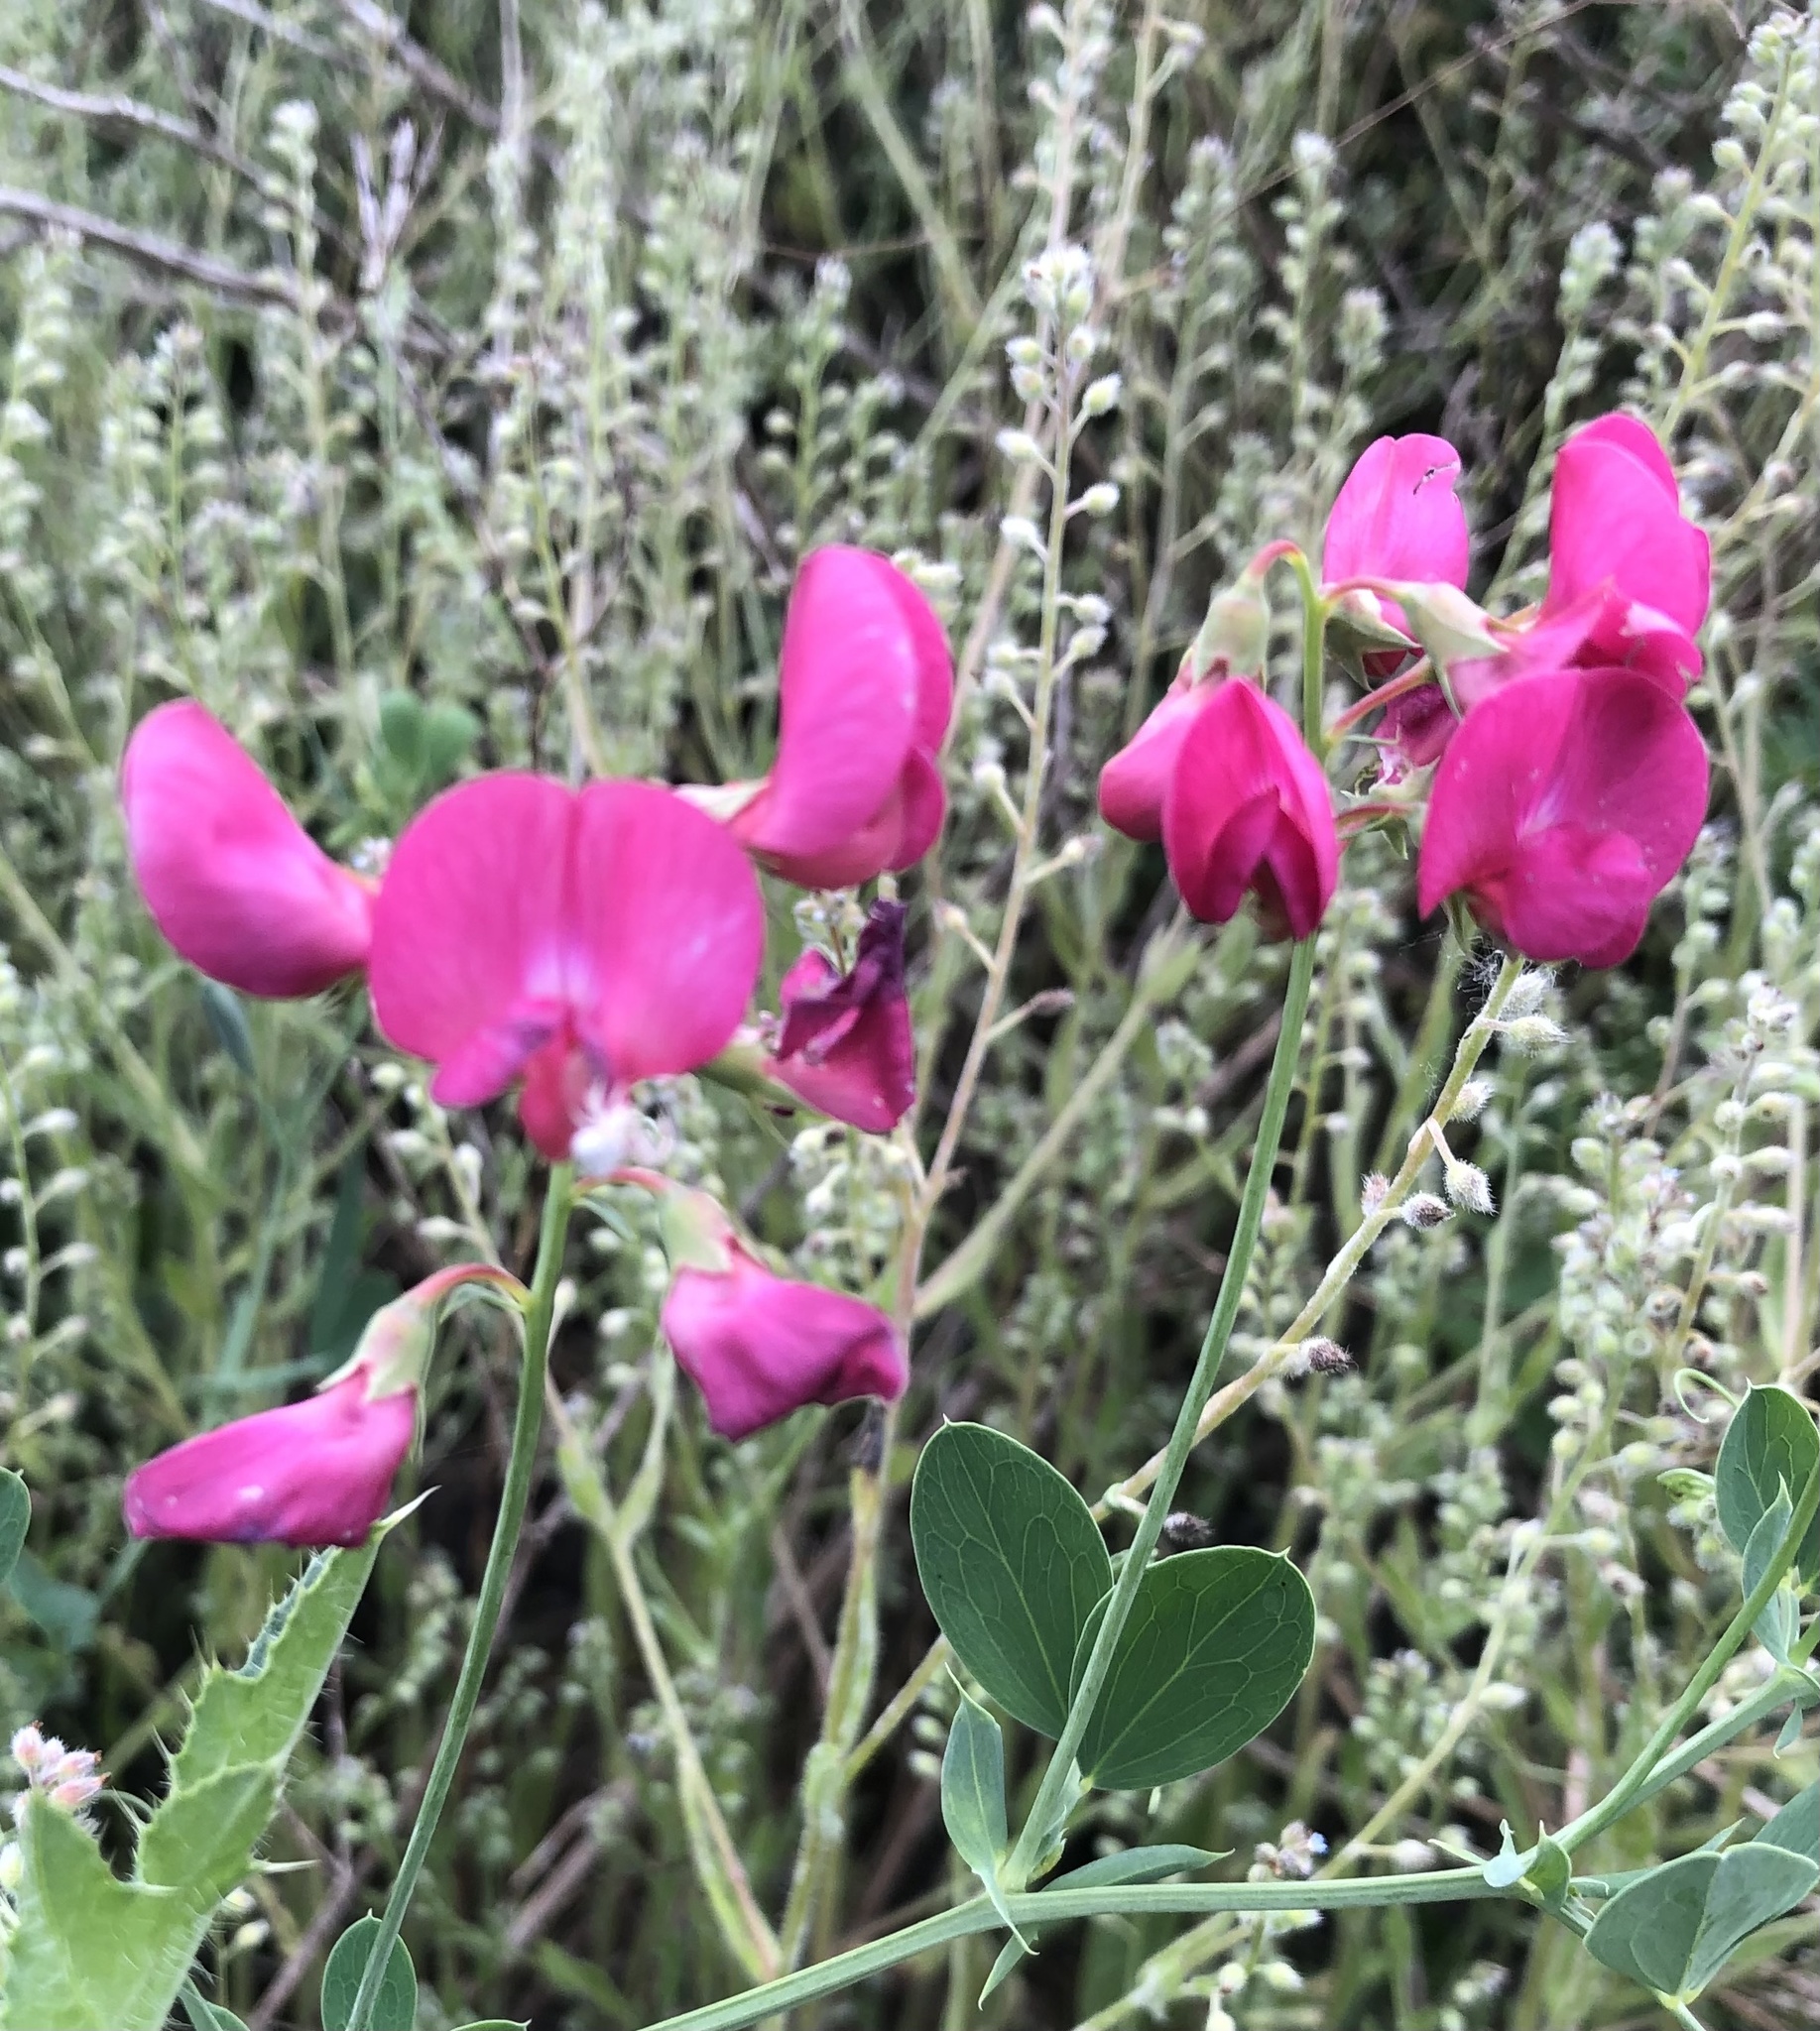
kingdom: Plantae
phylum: Tracheophyta
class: Magnoliopsida
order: Fabales
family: Fabaceae
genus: Lathyrus
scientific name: Lathyrus tuberosus
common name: Tuberous pea
